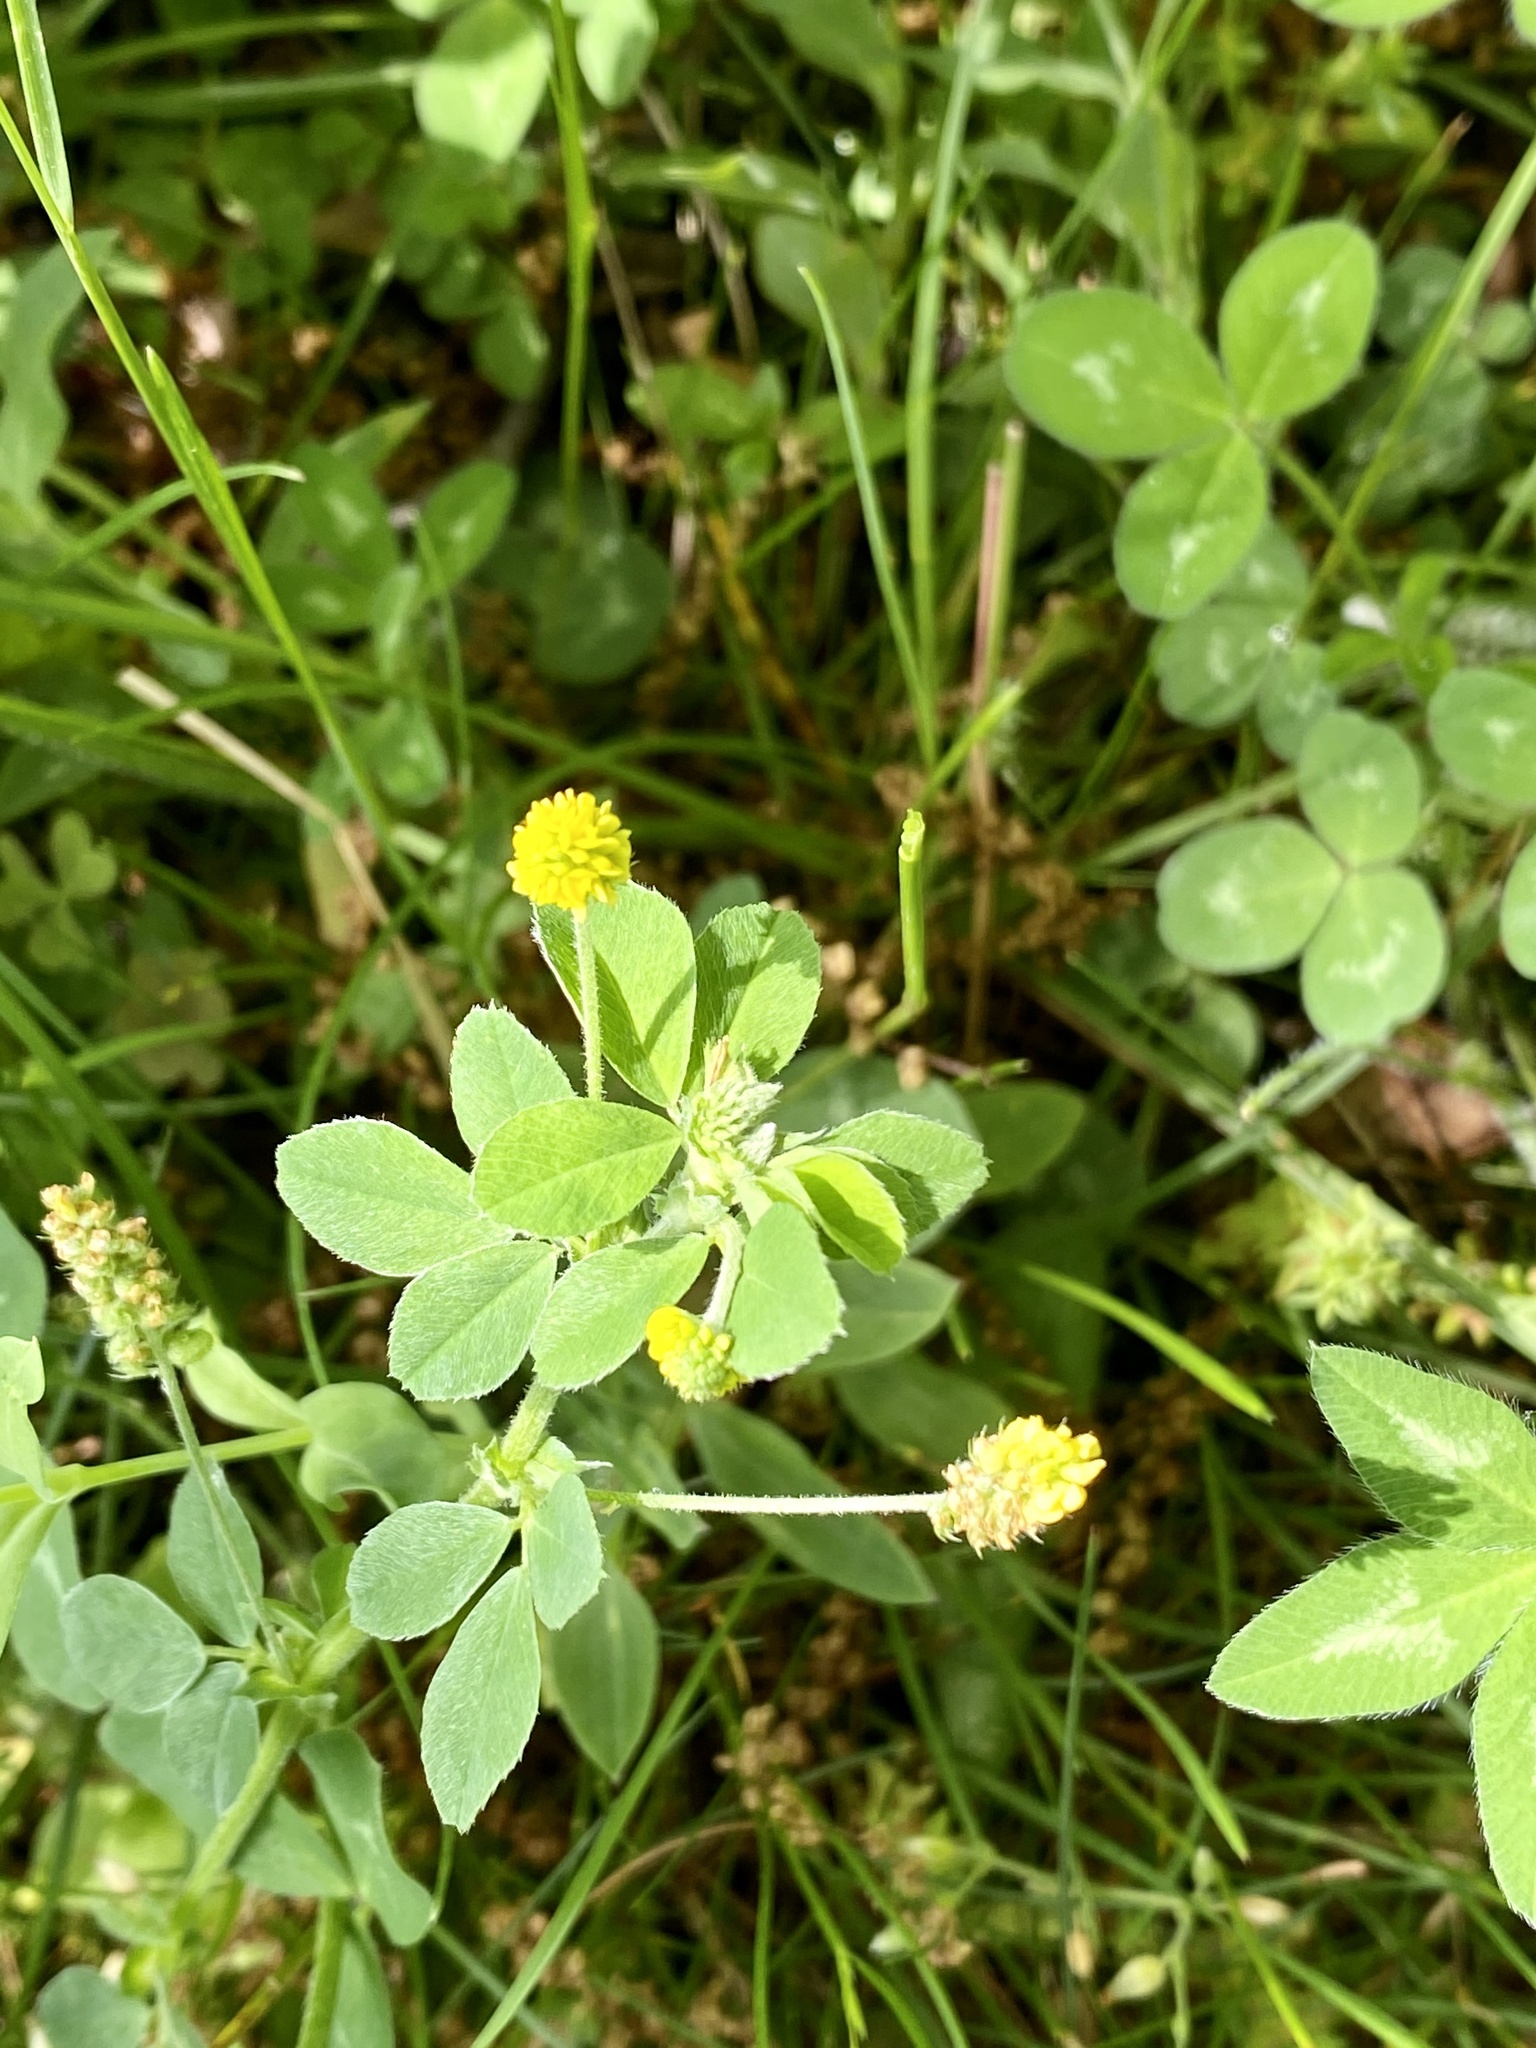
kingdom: Plantae
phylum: Tracheophyta
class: Magnoliopsida
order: Fabales
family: Fabaceae
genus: Medicago
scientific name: Medicago lupulina
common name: Black medick
